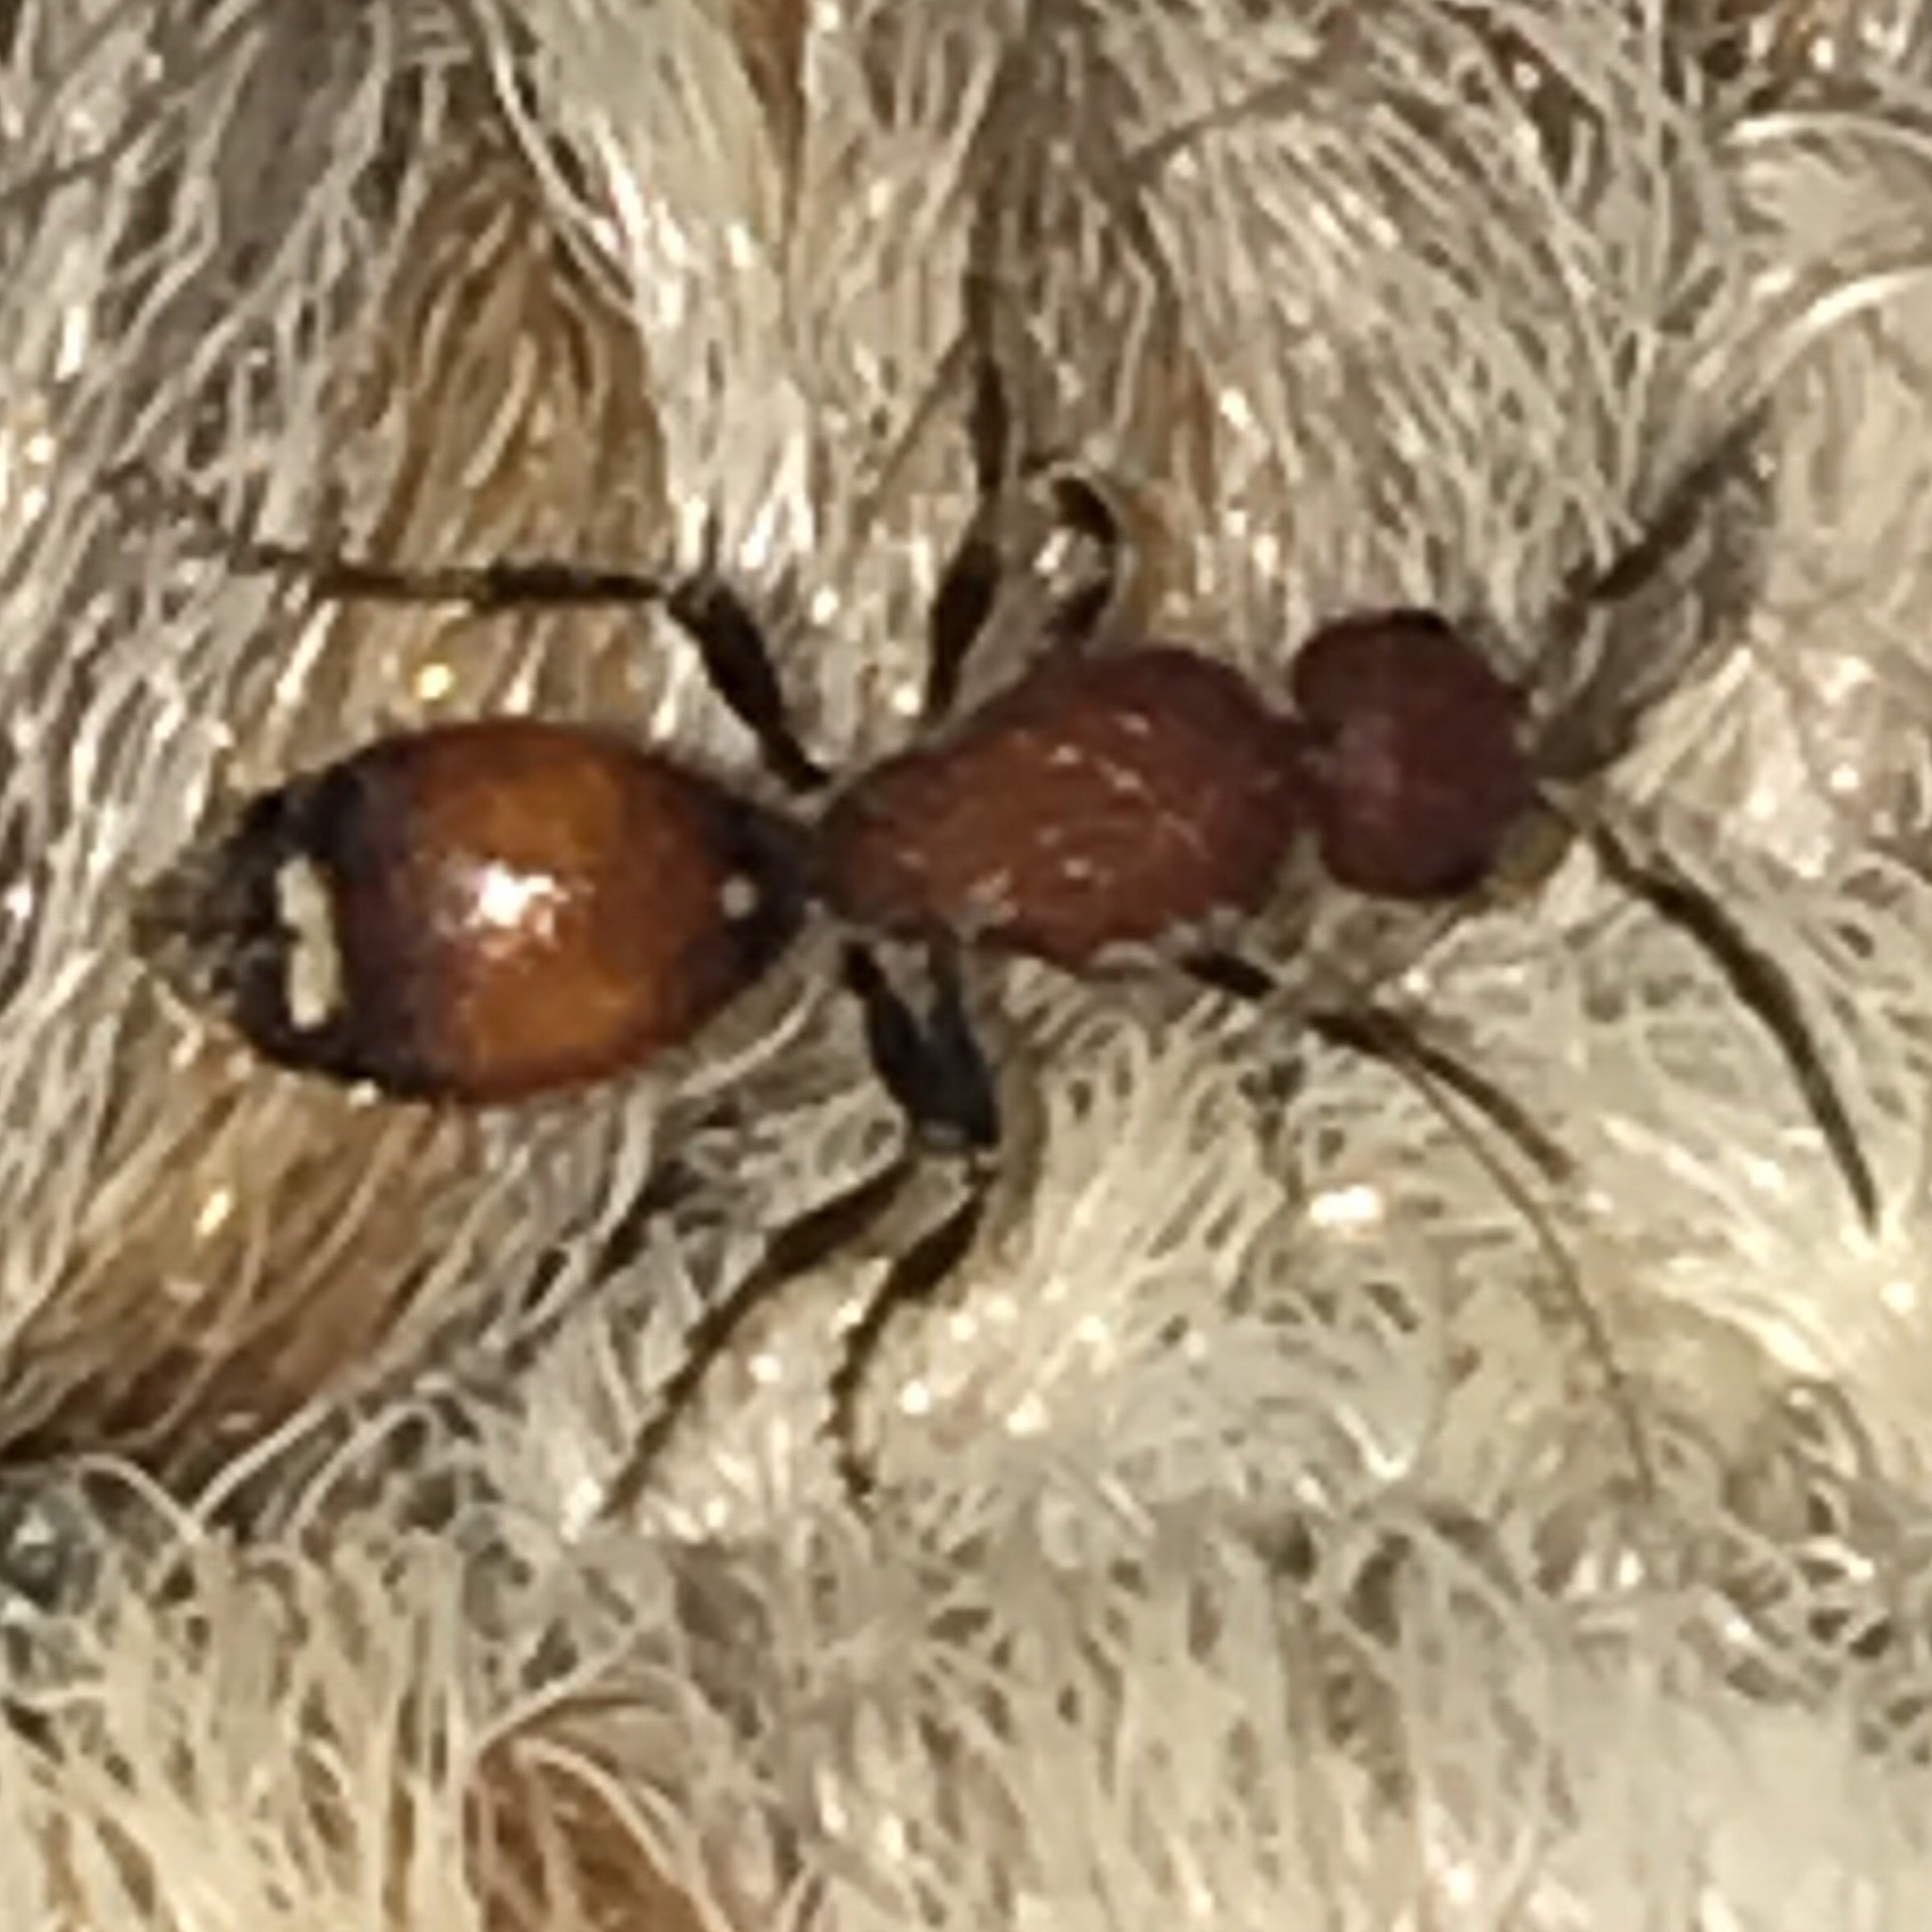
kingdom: Animalia
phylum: Arthropoda
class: Insecta
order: Hymenoptera
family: Mutillidae
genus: Sphaeropthalma
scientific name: Sphaeropthalma
